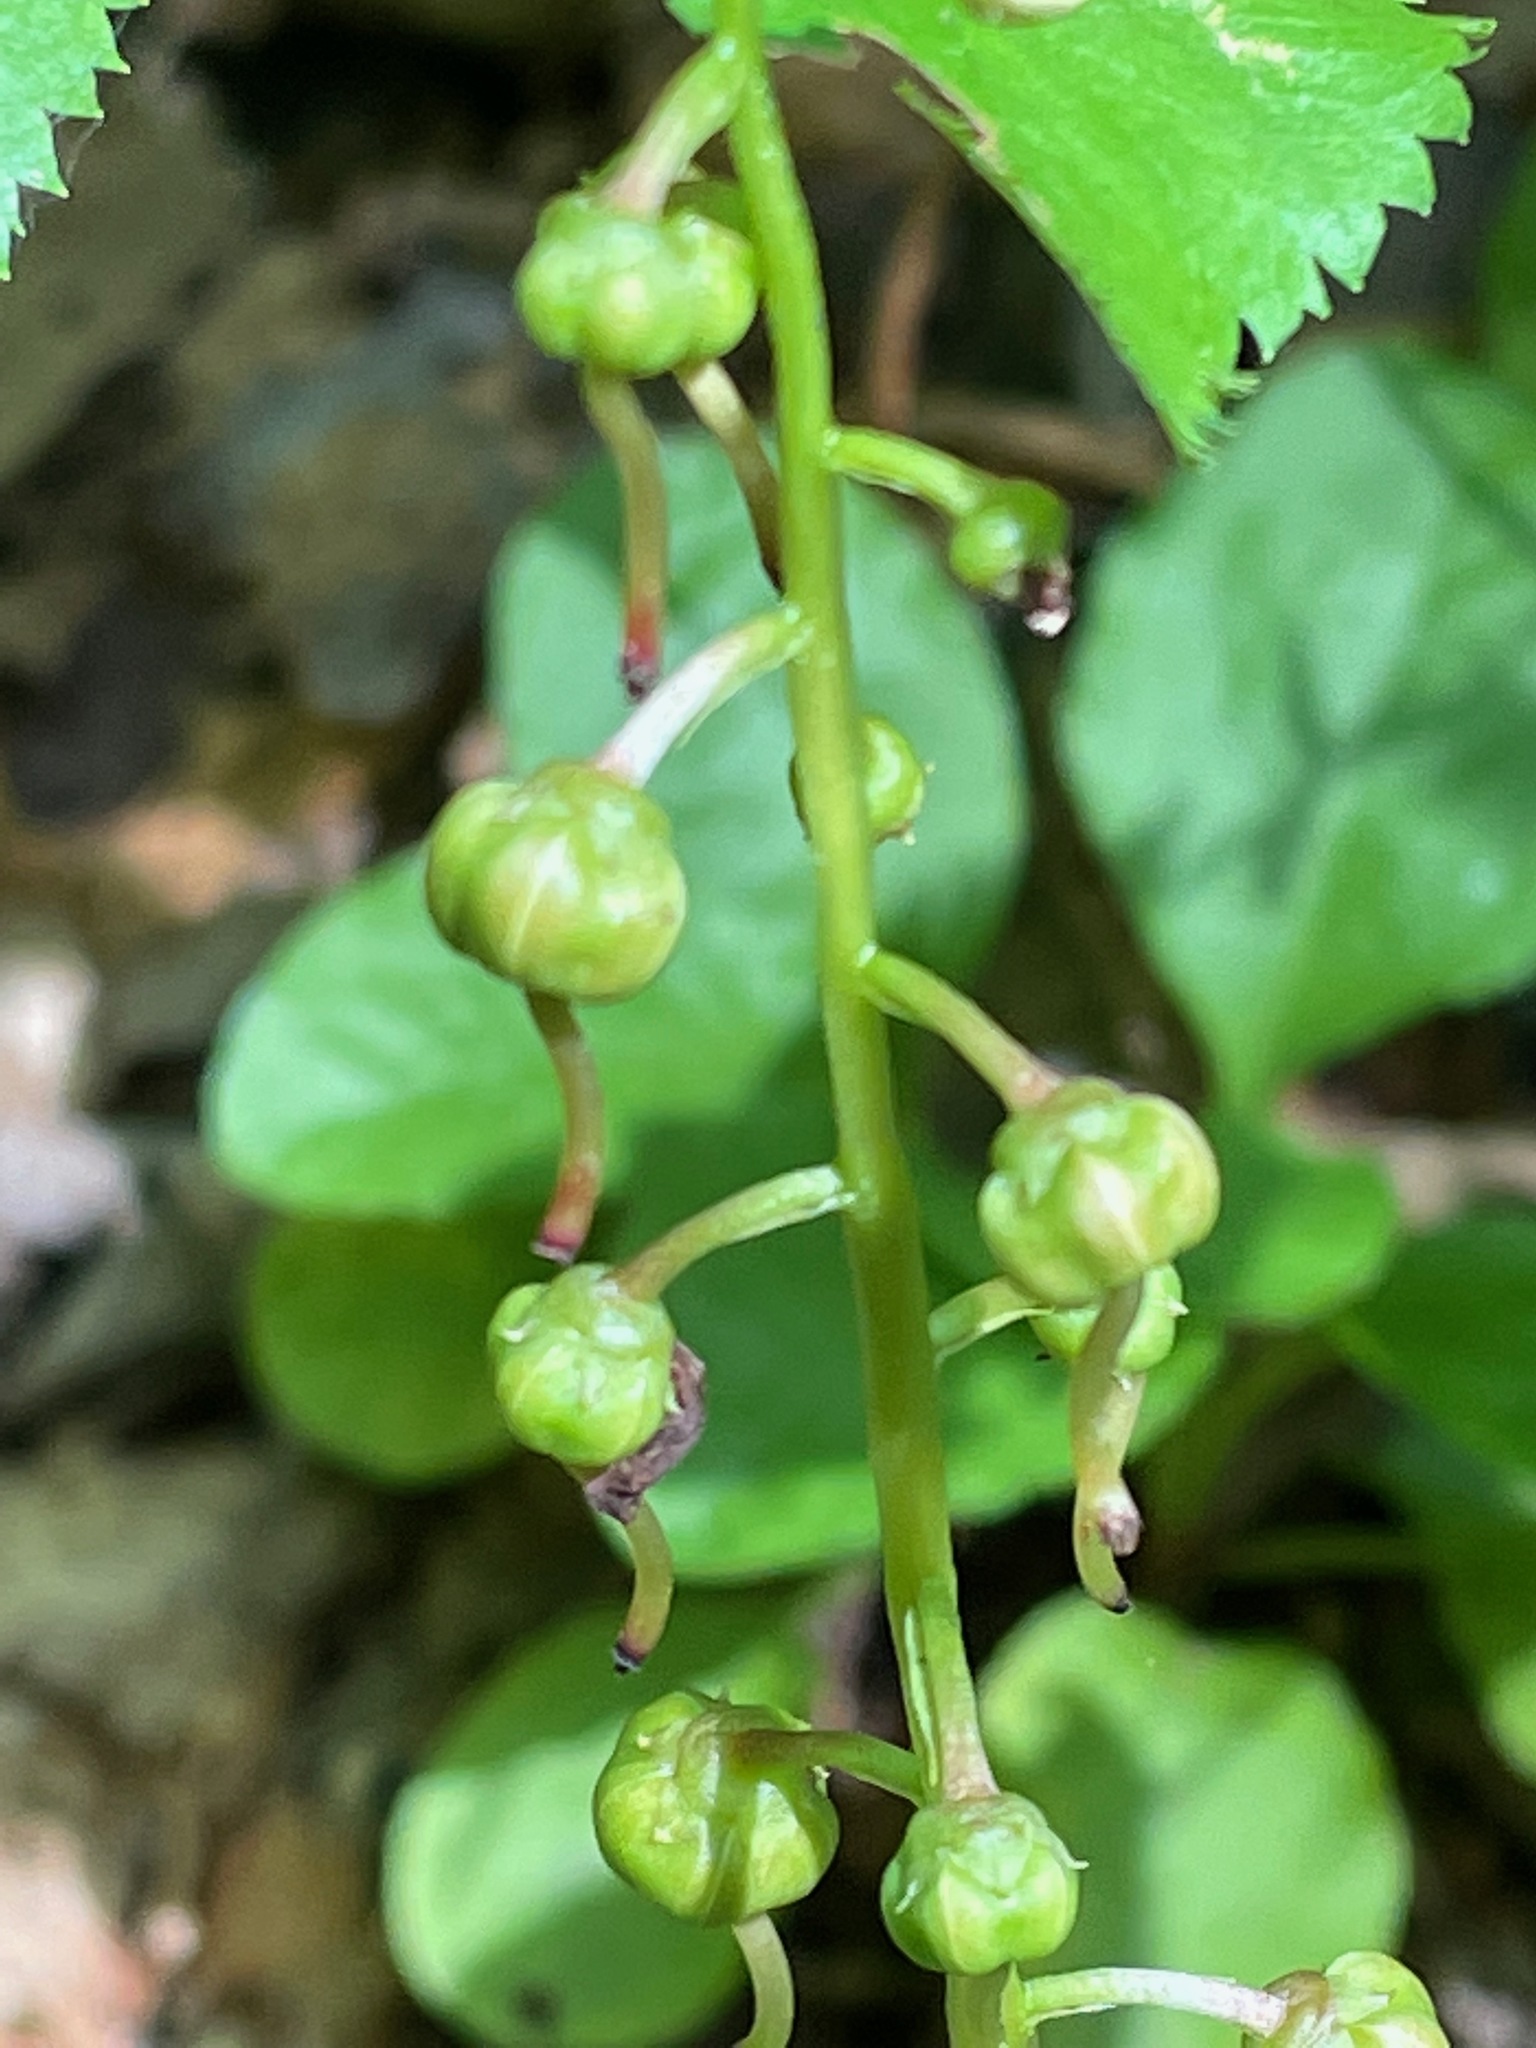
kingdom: Plantae
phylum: Tracheophyta
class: Magnoliopsida
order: Ericales
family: Ericaceae
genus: Pyrola
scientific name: Pyrola elliptica
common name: Shinleaf
